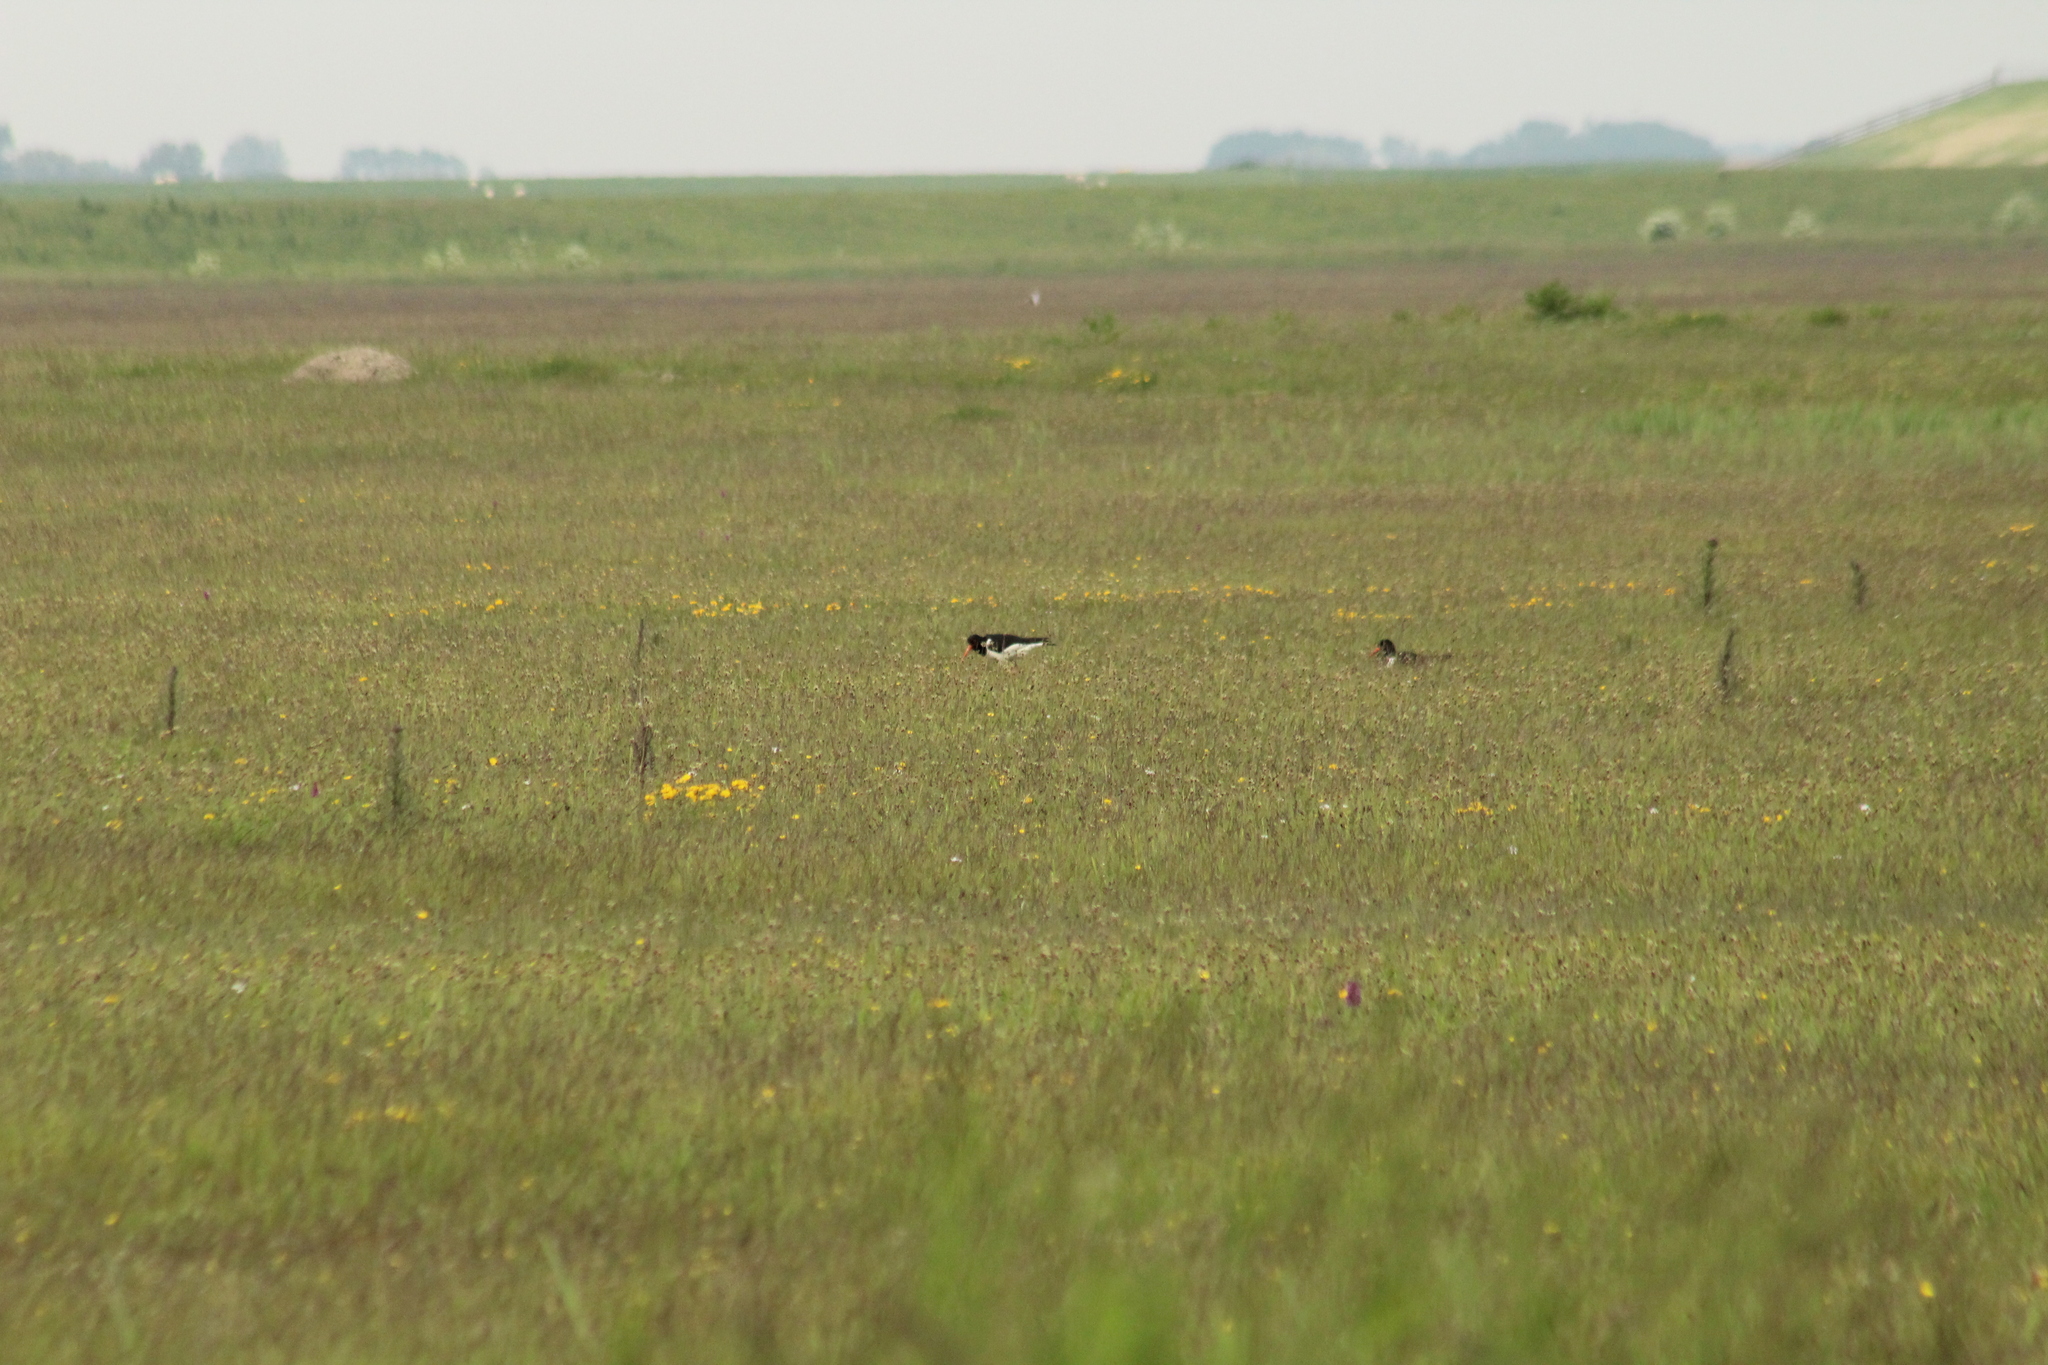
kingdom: Animalia
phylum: Chordata
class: Aves
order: Charadriiformes
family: Haematopodidae
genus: Haematopus
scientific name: Haematopus ostralegus
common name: Eurasian oystercatcher
